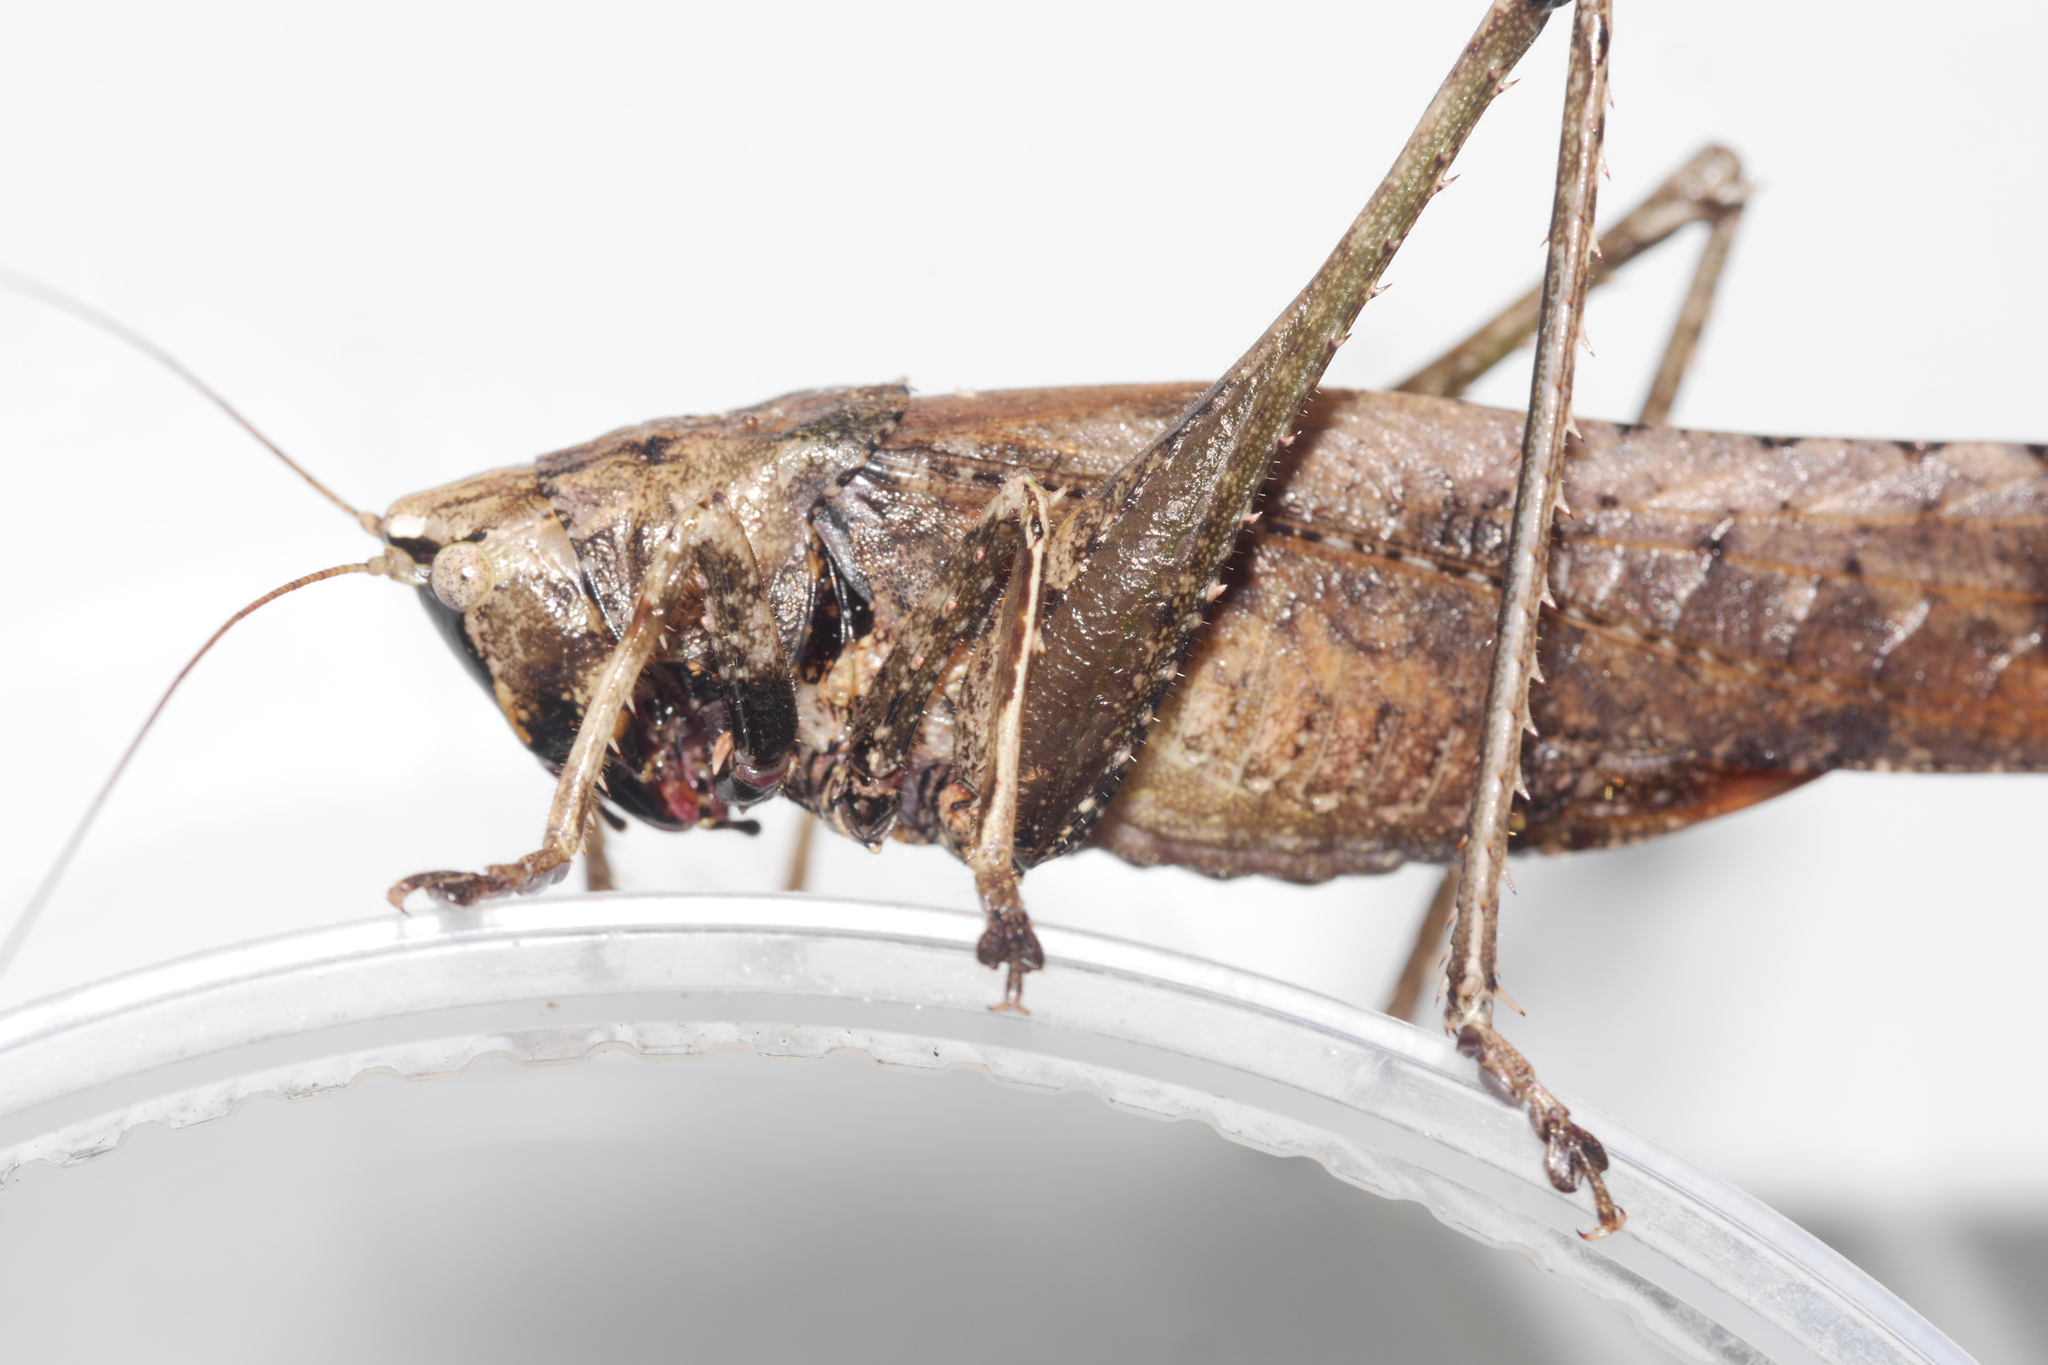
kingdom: Animalia
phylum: Arthropoda
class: Insecta
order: Orthoptera
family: Tettigoniidae
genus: Eppia
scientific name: Eppia truncatipennis
